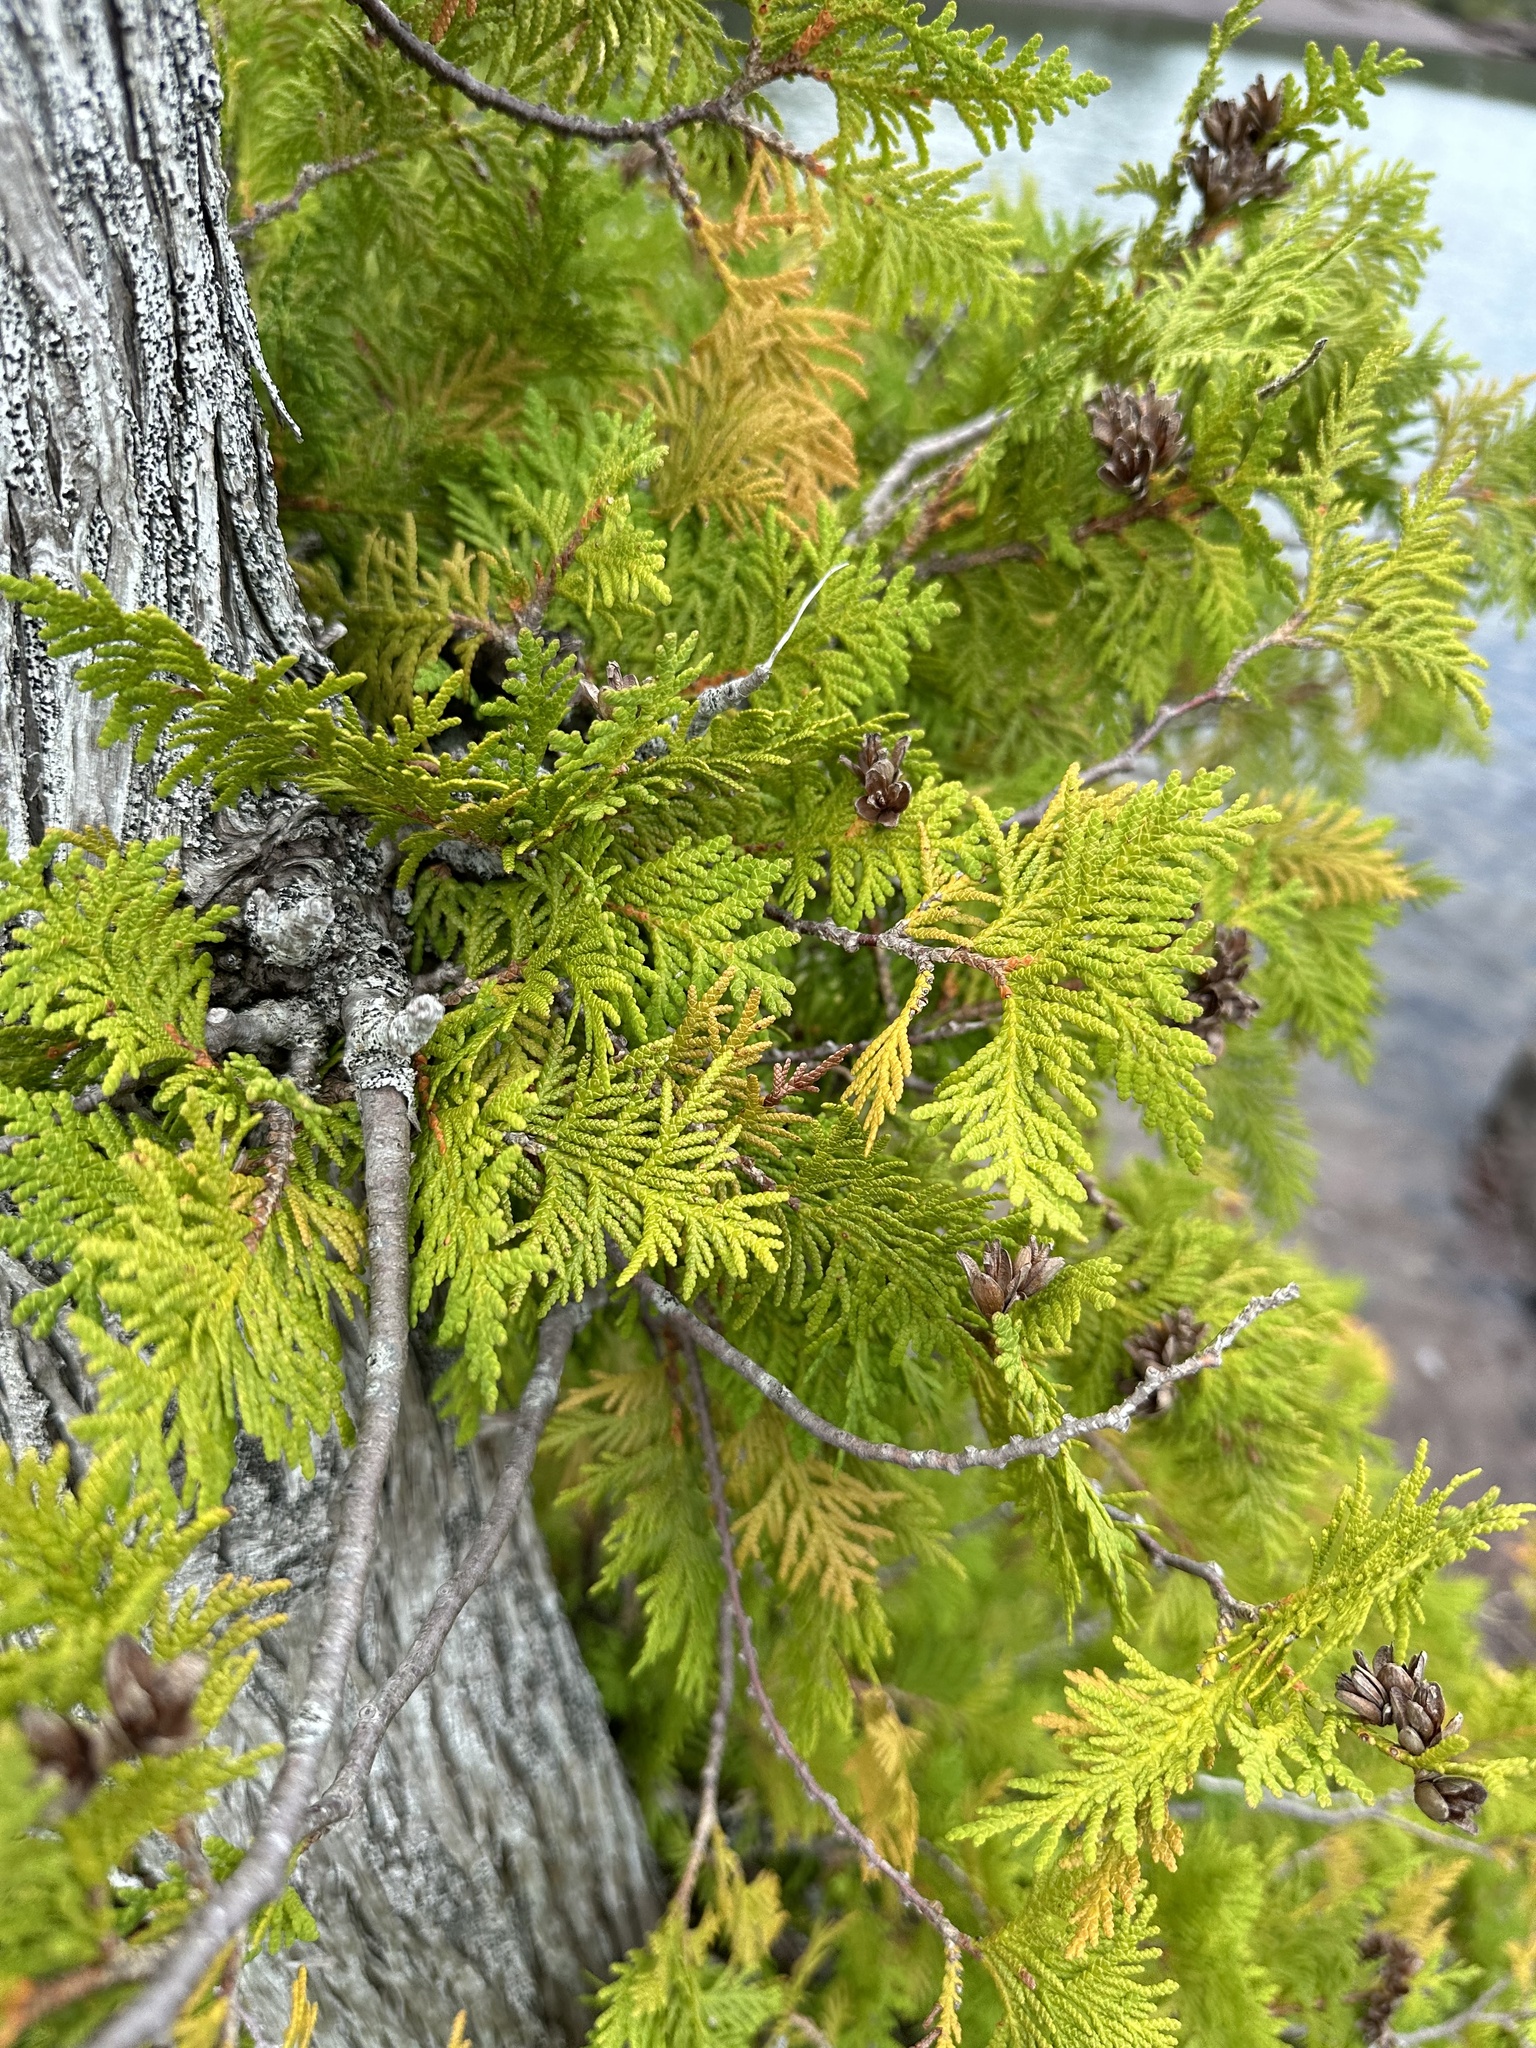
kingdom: Plantae
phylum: Tracheophyta
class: Pinopsida
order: Pinales
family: Cupressaceae
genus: Thuja
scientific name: Thuja occidentalis
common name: Northern white-cedar
